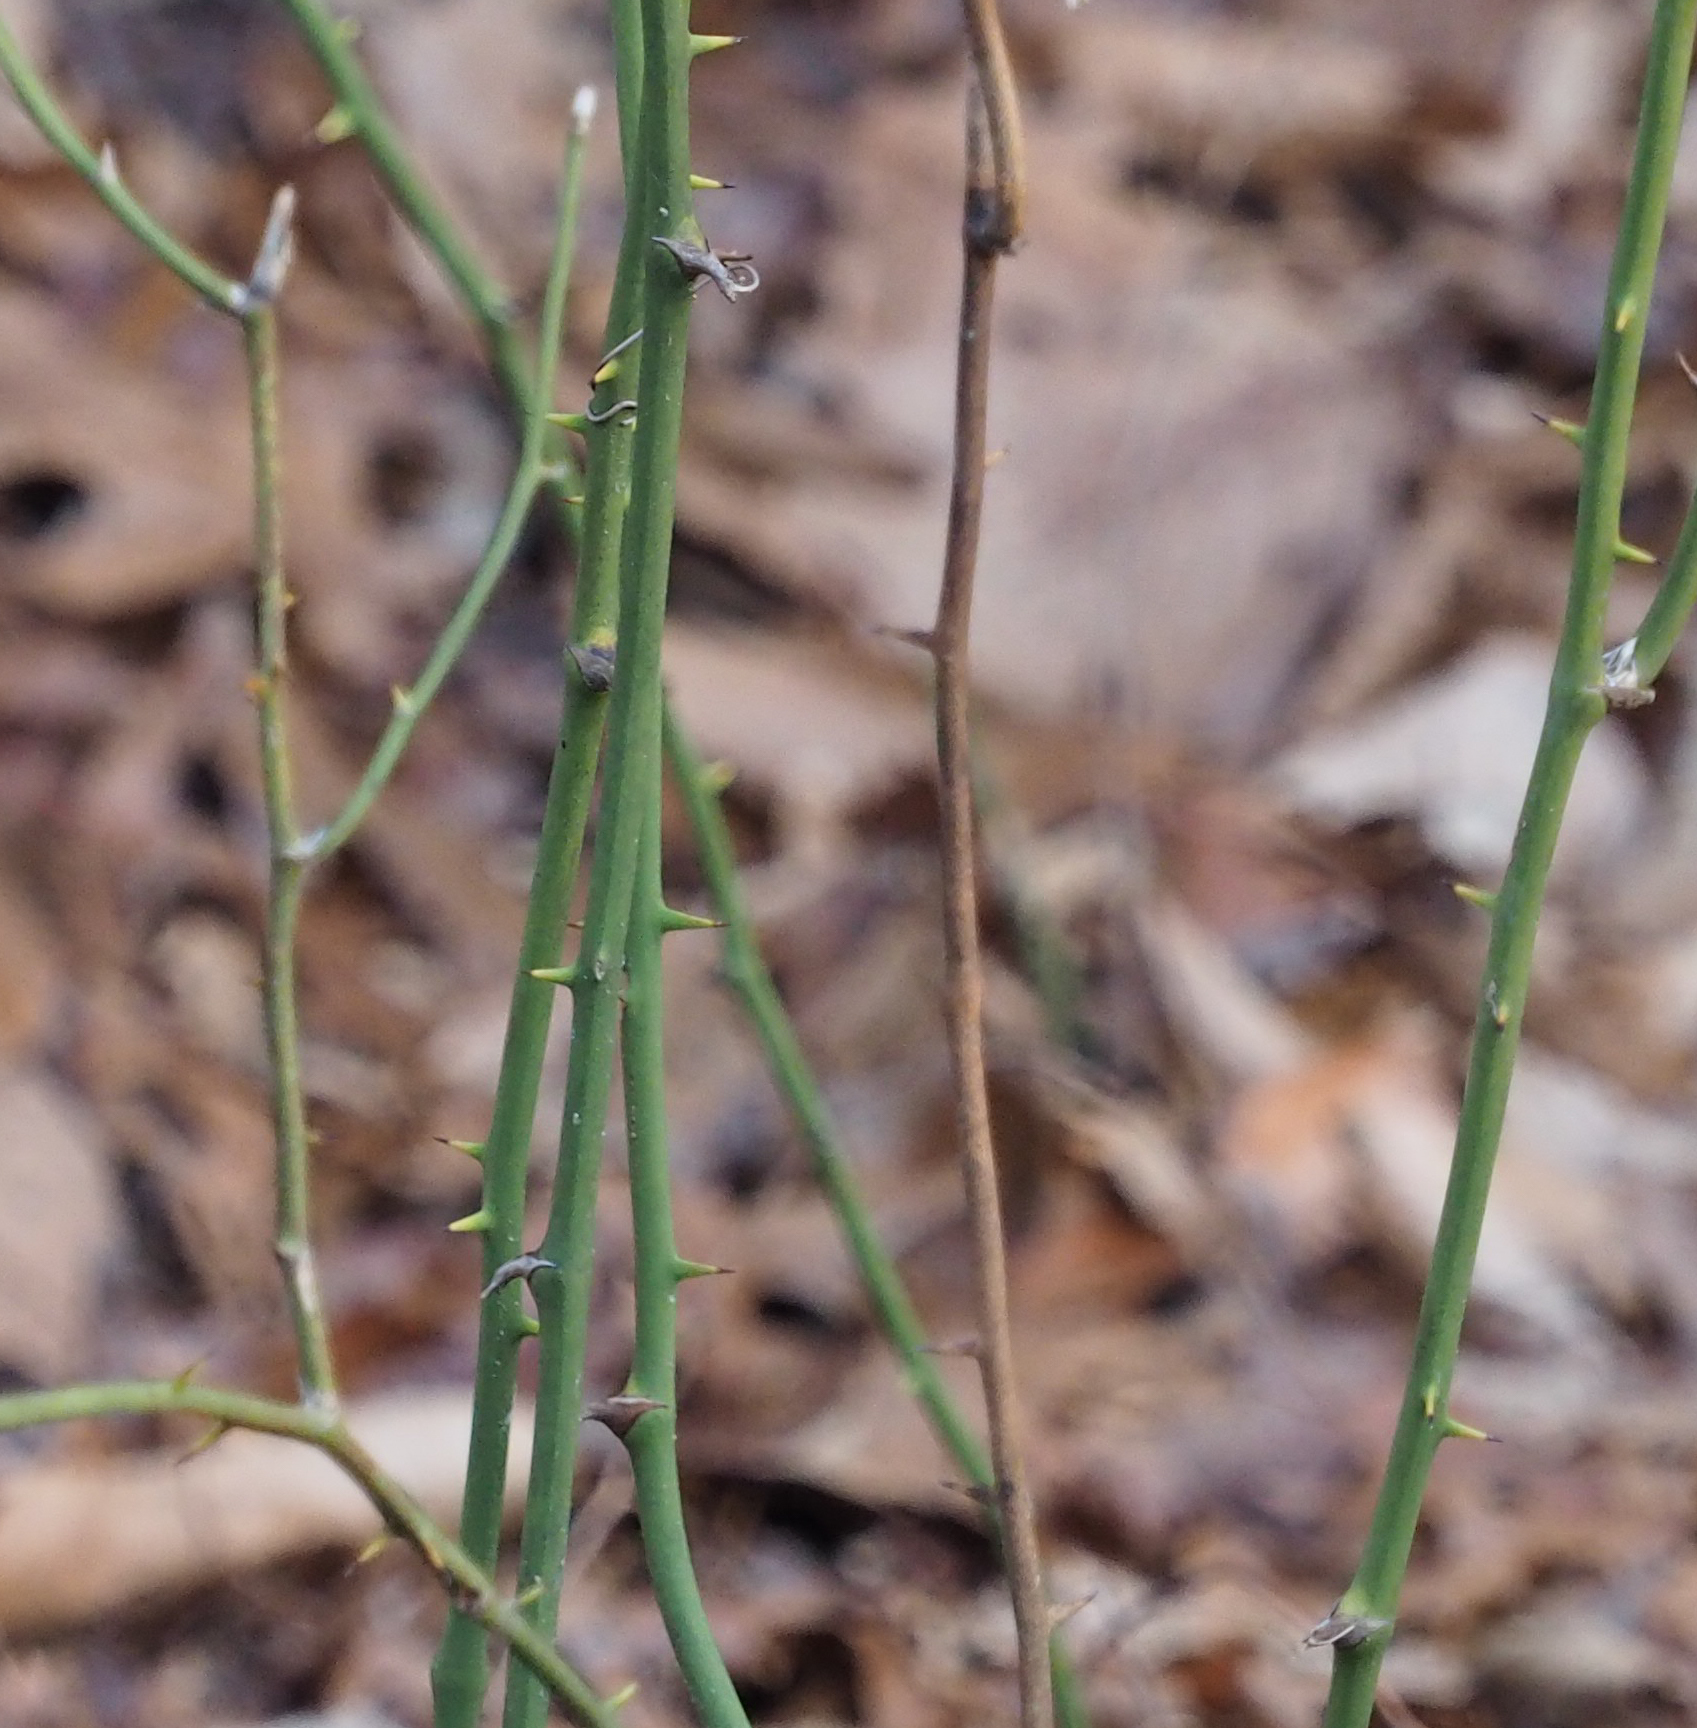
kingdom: Plantae
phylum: Tracheophyta
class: Liliopsida
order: Liliales
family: Smilacaceae
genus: Smilax
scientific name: Smilax rotundifolia
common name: Bullbriar
